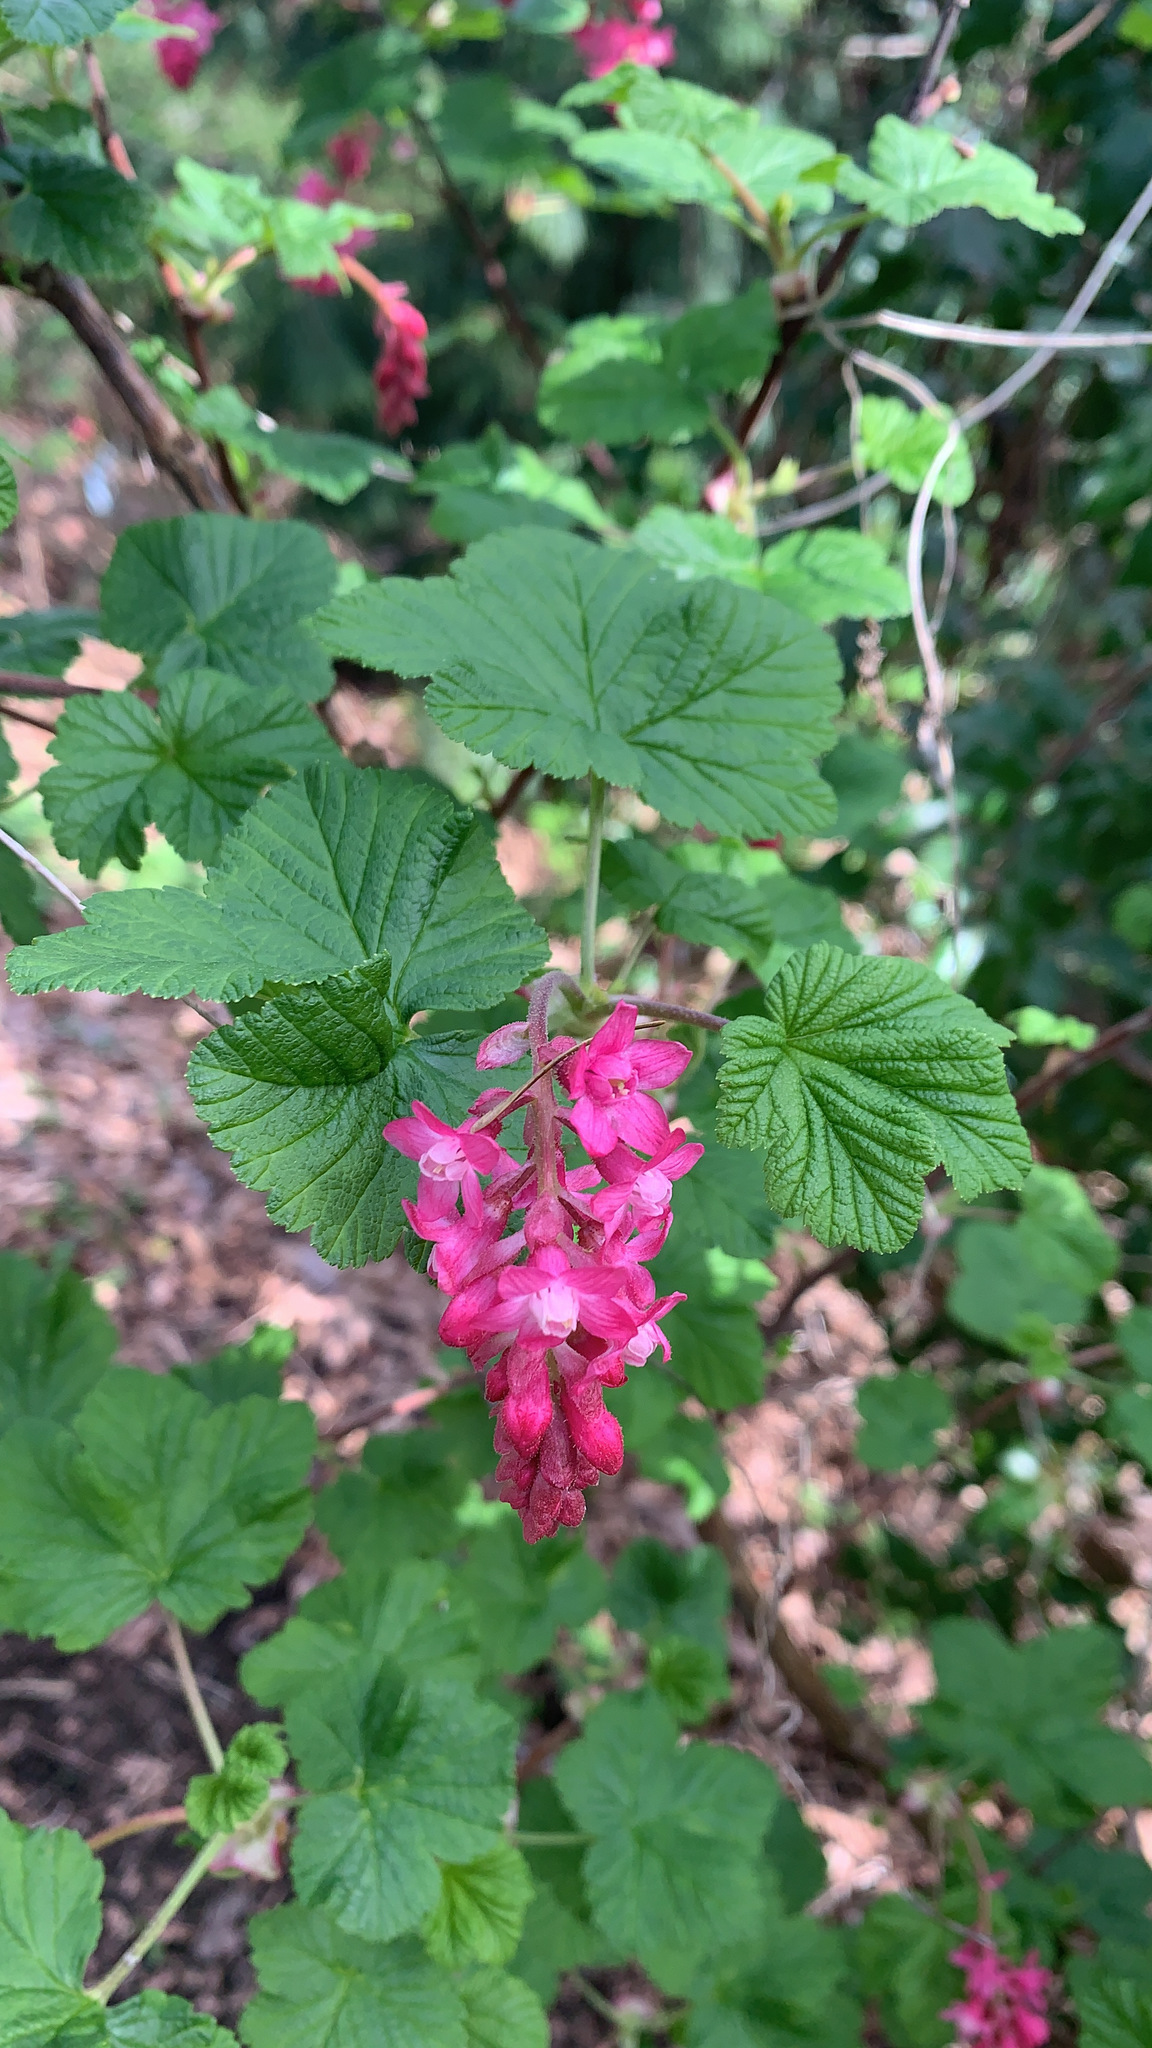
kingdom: Plantae
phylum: Tracheophyta
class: Magnoliopsida
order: Saxifragales
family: Grossulariaceae
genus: Ribes
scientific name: Ribes sanguineum
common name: Flowering currant
